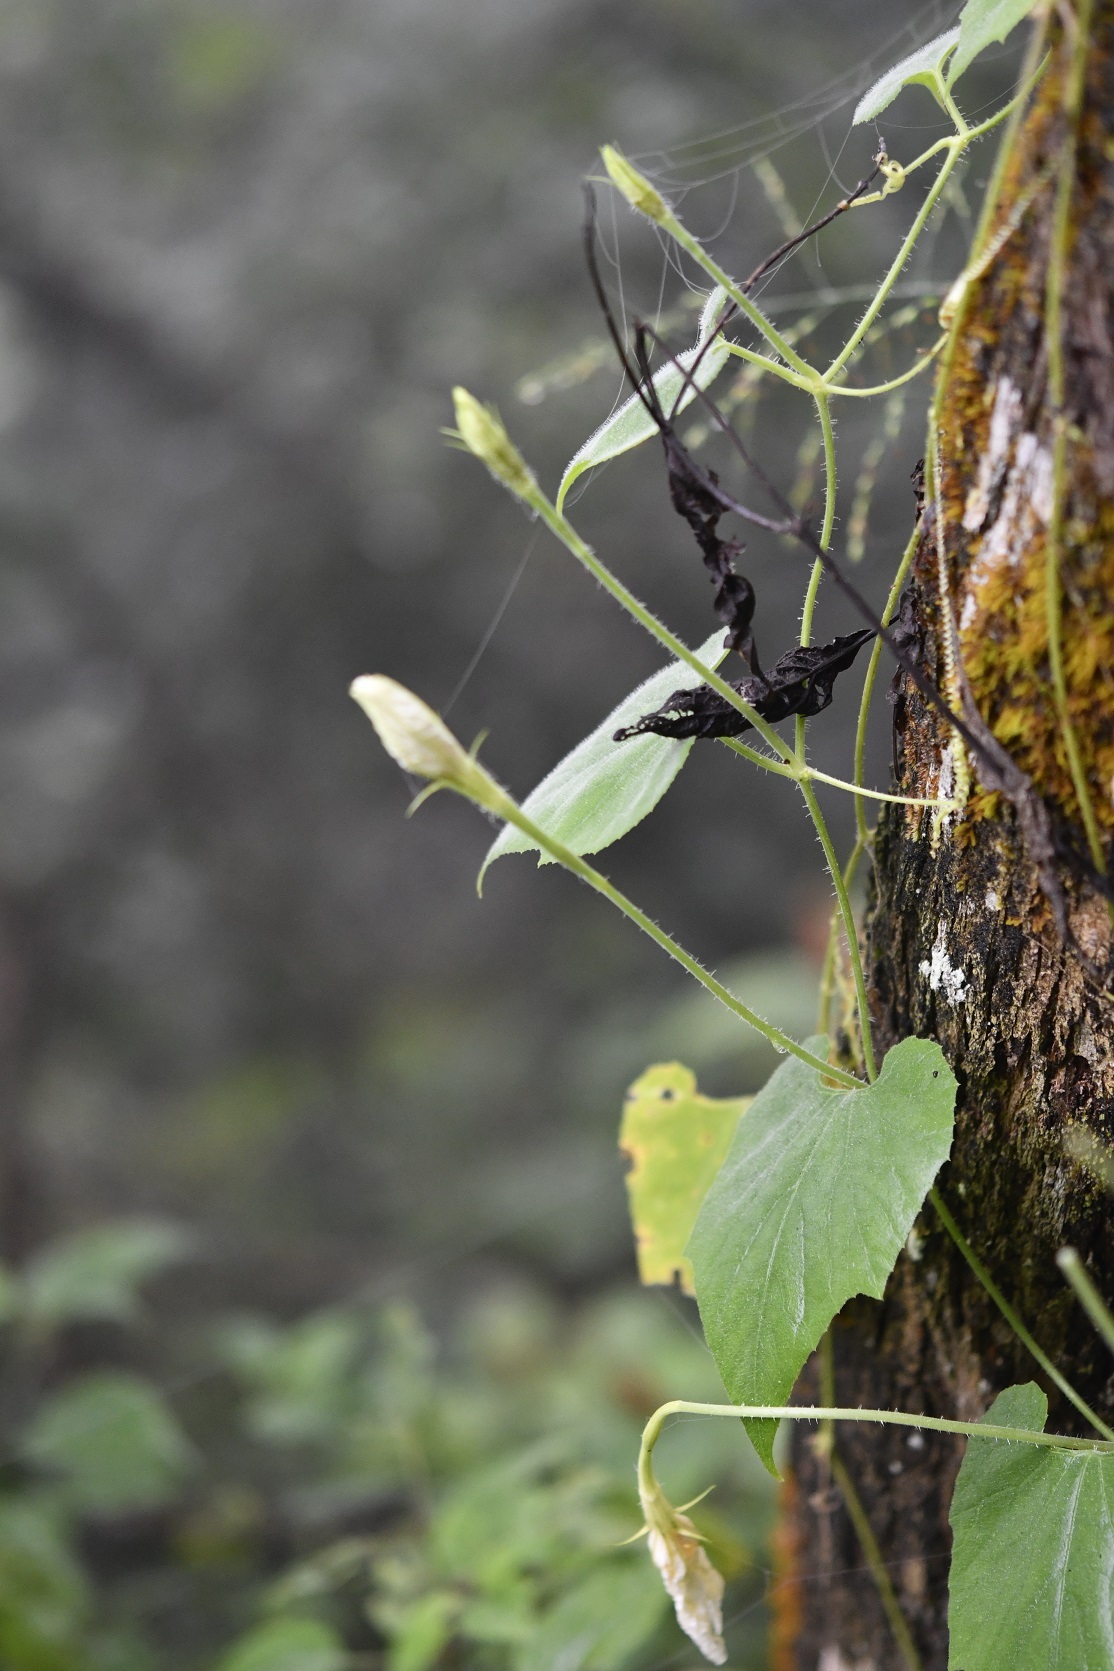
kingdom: Plantae
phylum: Tracheophyta
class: Magnoliopsida
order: Cucurbitales
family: Cucurbitaceae
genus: Lagenaria
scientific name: Lagenaria siceraria
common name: Bottle gourd
